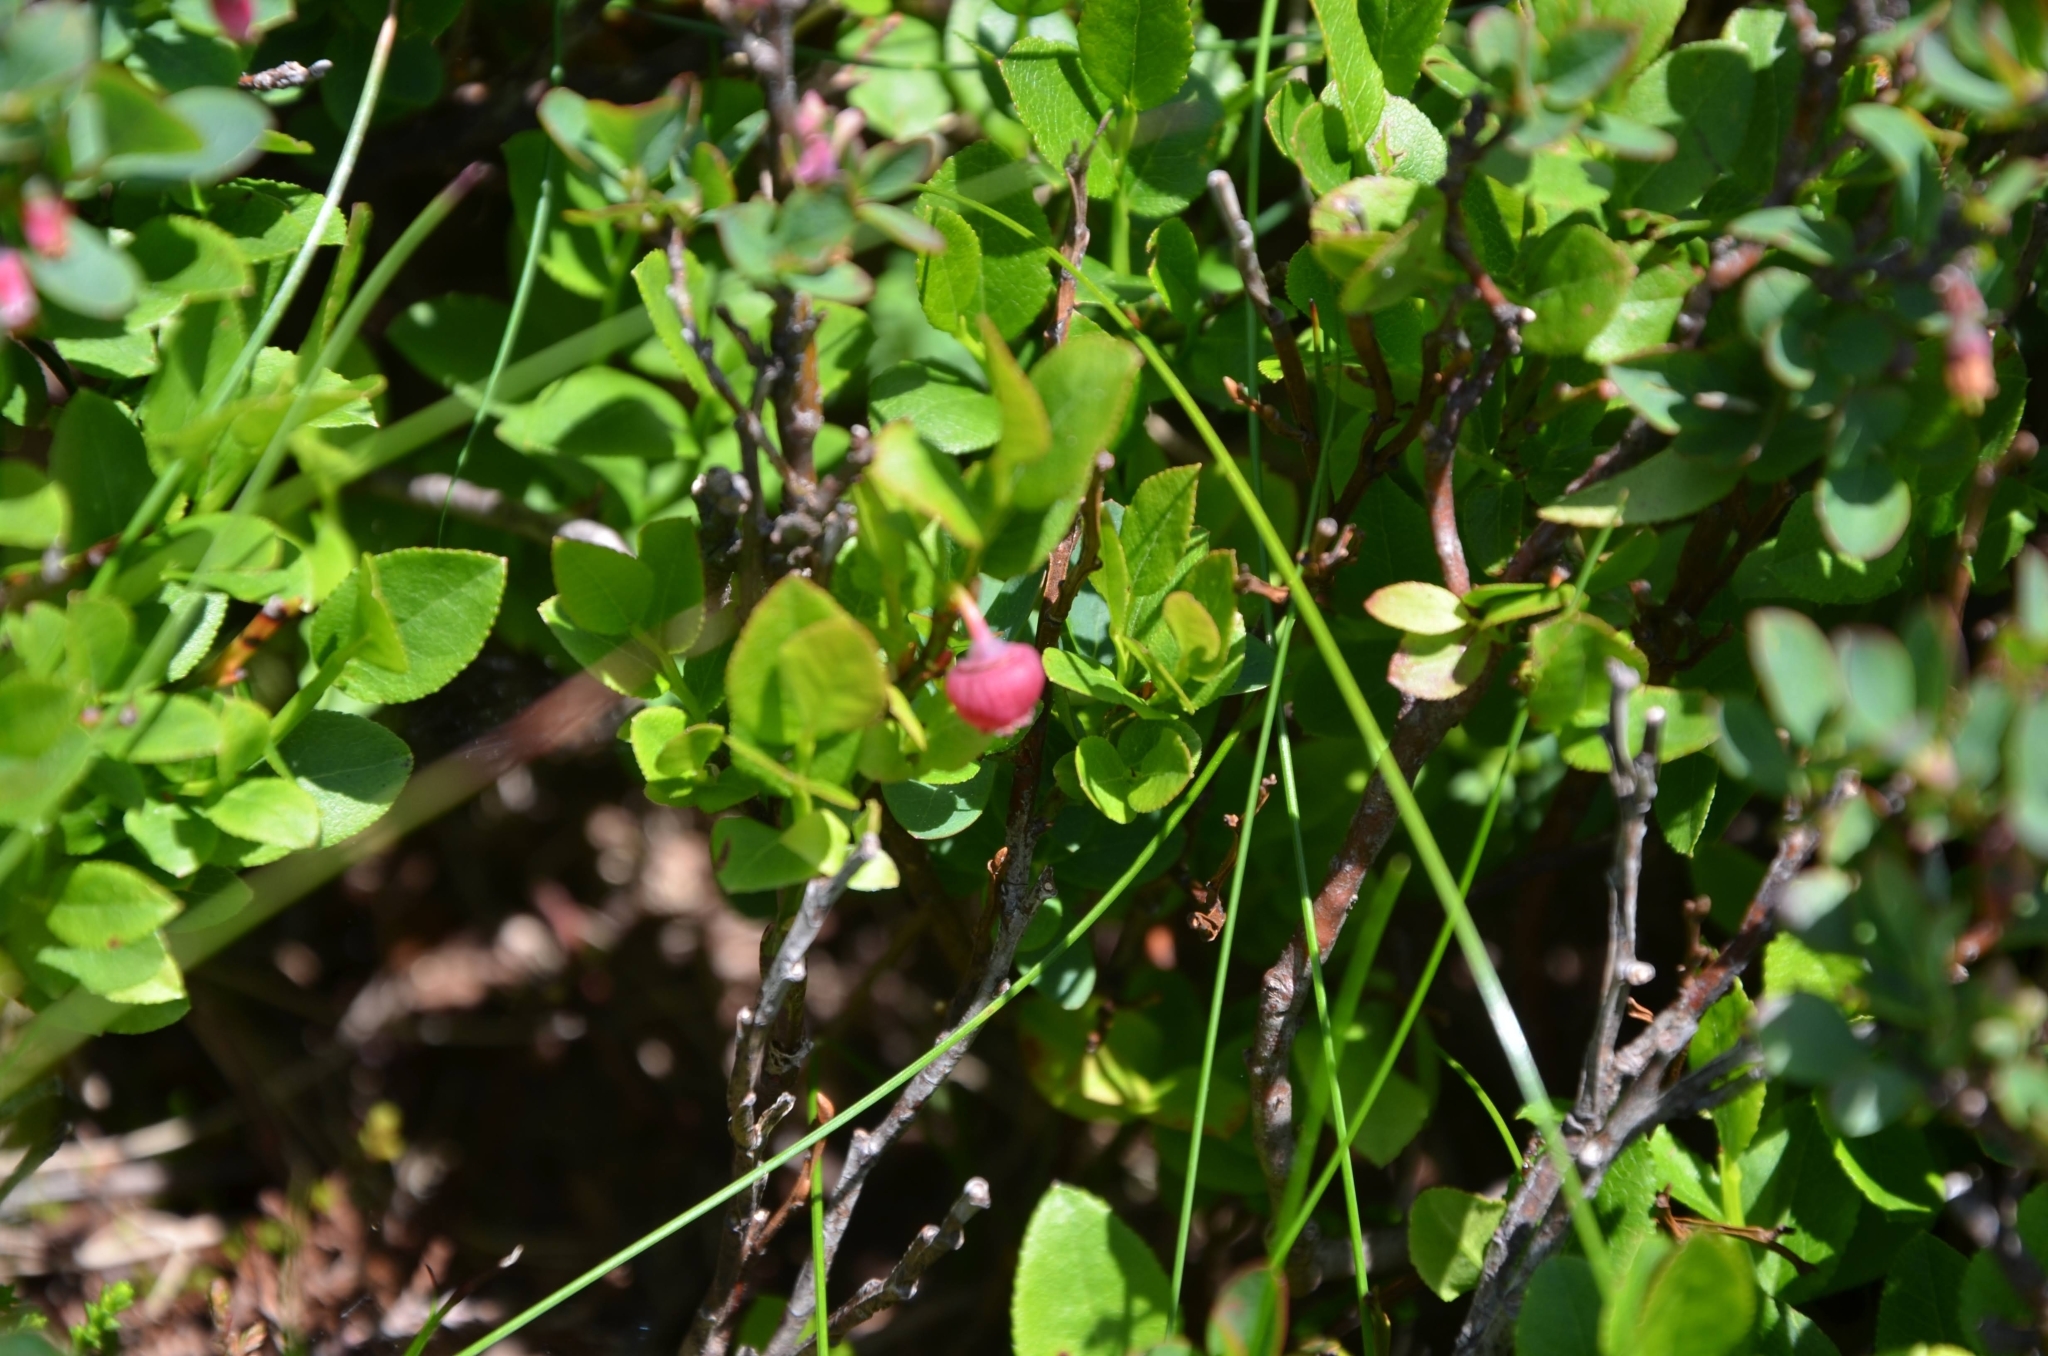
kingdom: Plantae
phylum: Tracheophyta
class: Magnoliopsida
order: Ericales
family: Ericaceae
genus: Vaccinium
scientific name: Vaccinium myrtillus
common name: Bilberry
